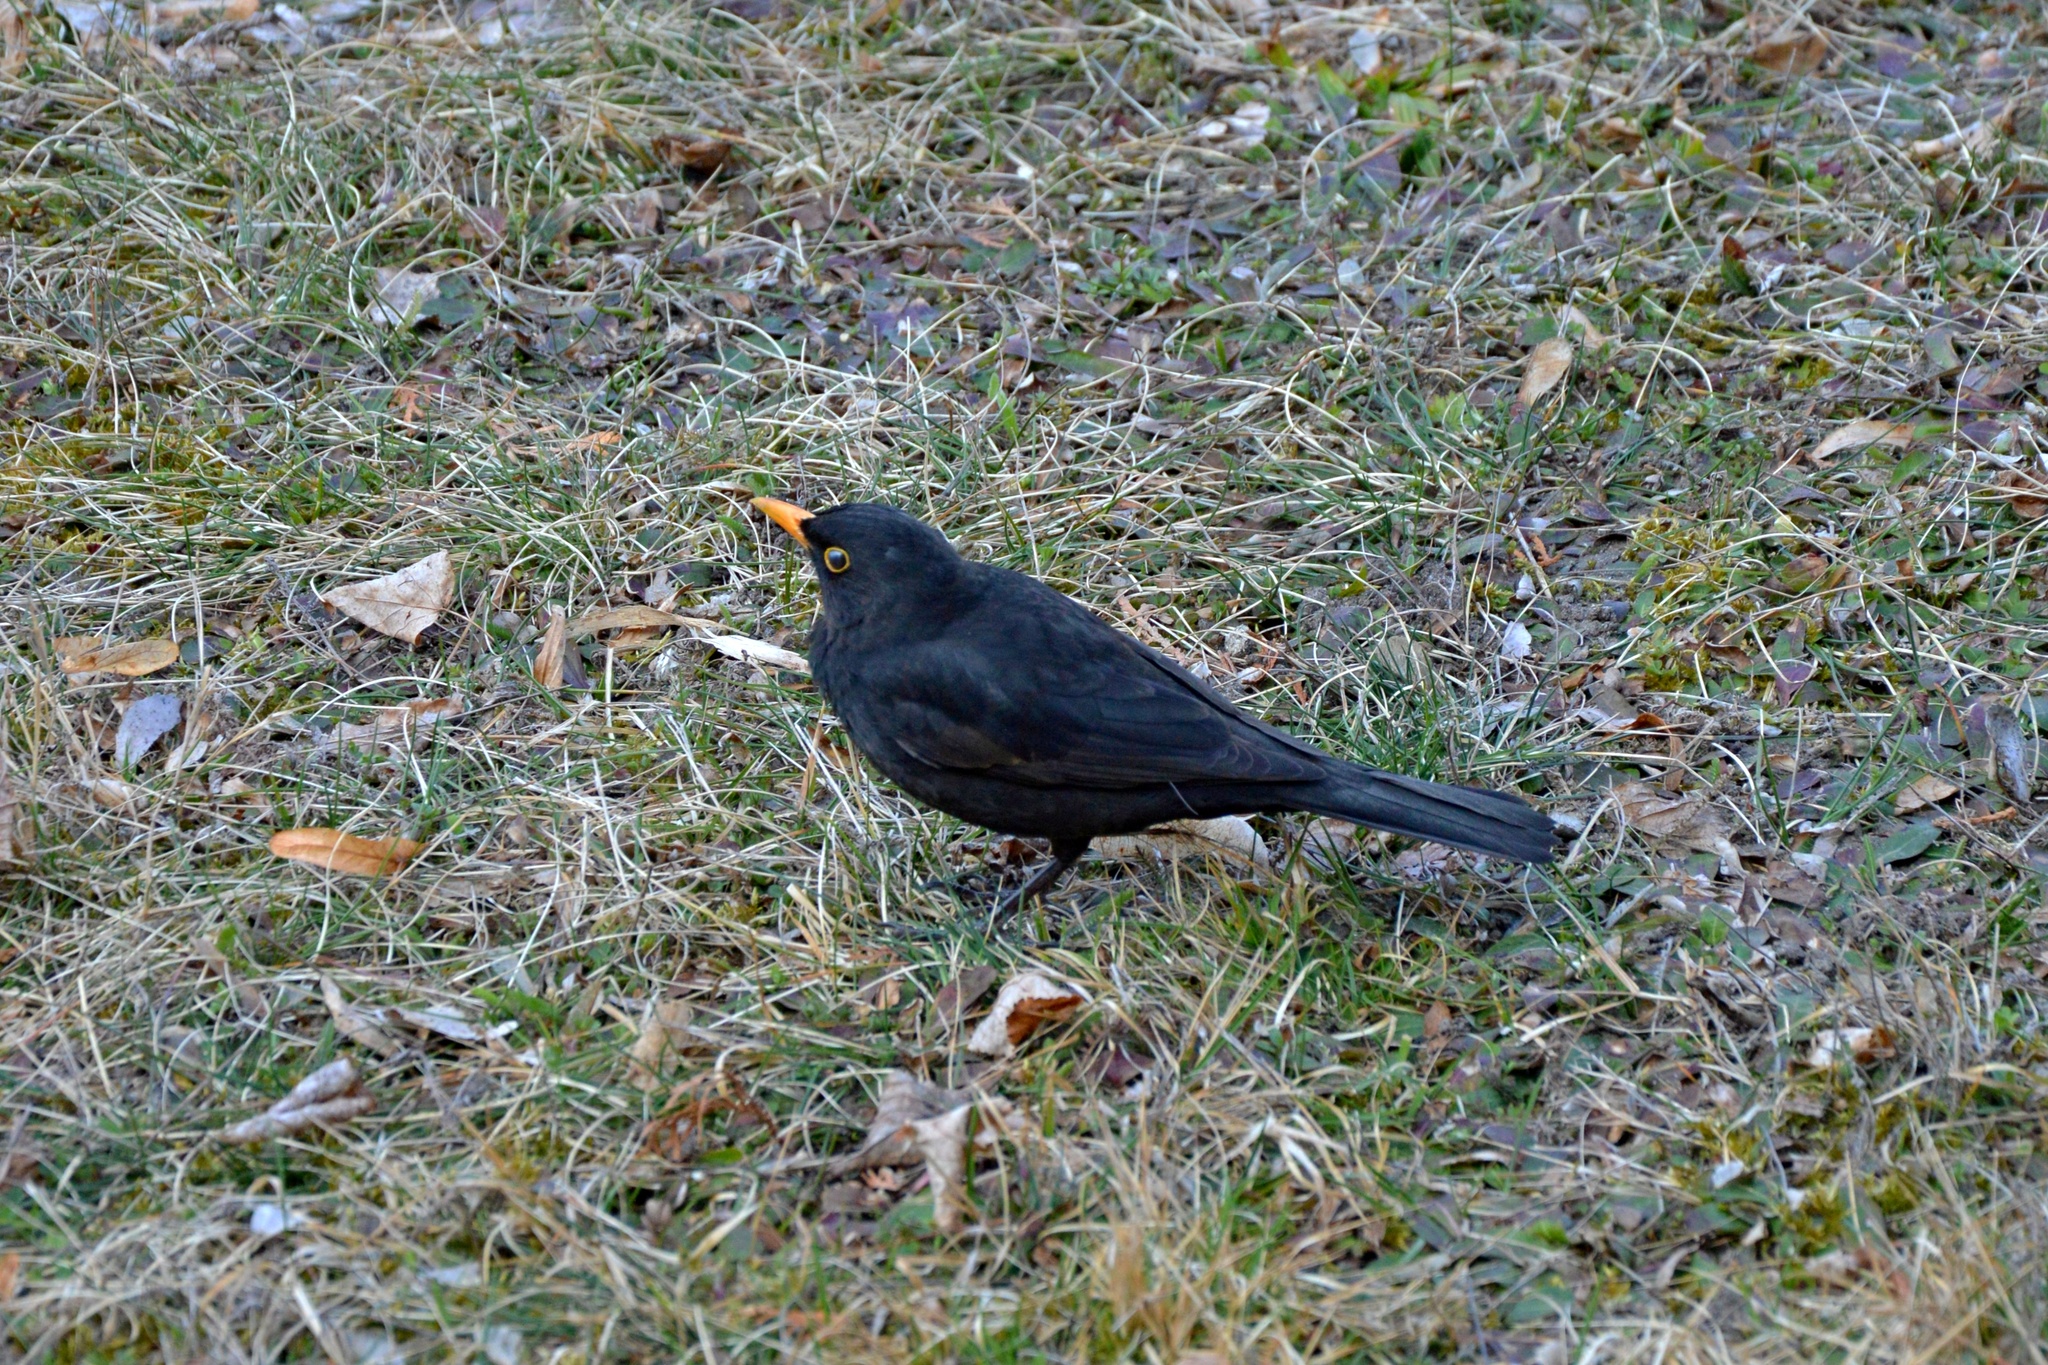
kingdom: Animalia
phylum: Chordata
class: Aves
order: Passeriformes
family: Turdidae
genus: Turdus
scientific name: Turdus merula
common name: Common blackbird
